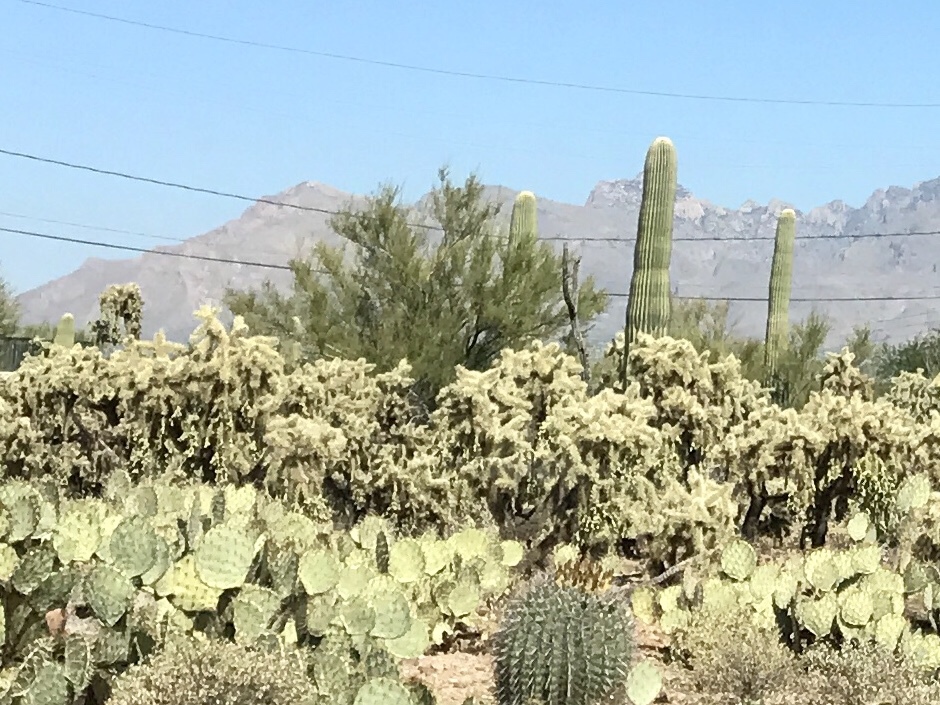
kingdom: Plantae
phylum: Tracheophyta
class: Magnoliopsida
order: Caryophyllales
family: Cactaceae
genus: Cylindropuntia
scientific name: Cylindropuntia fulgida
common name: Jumping cholla
